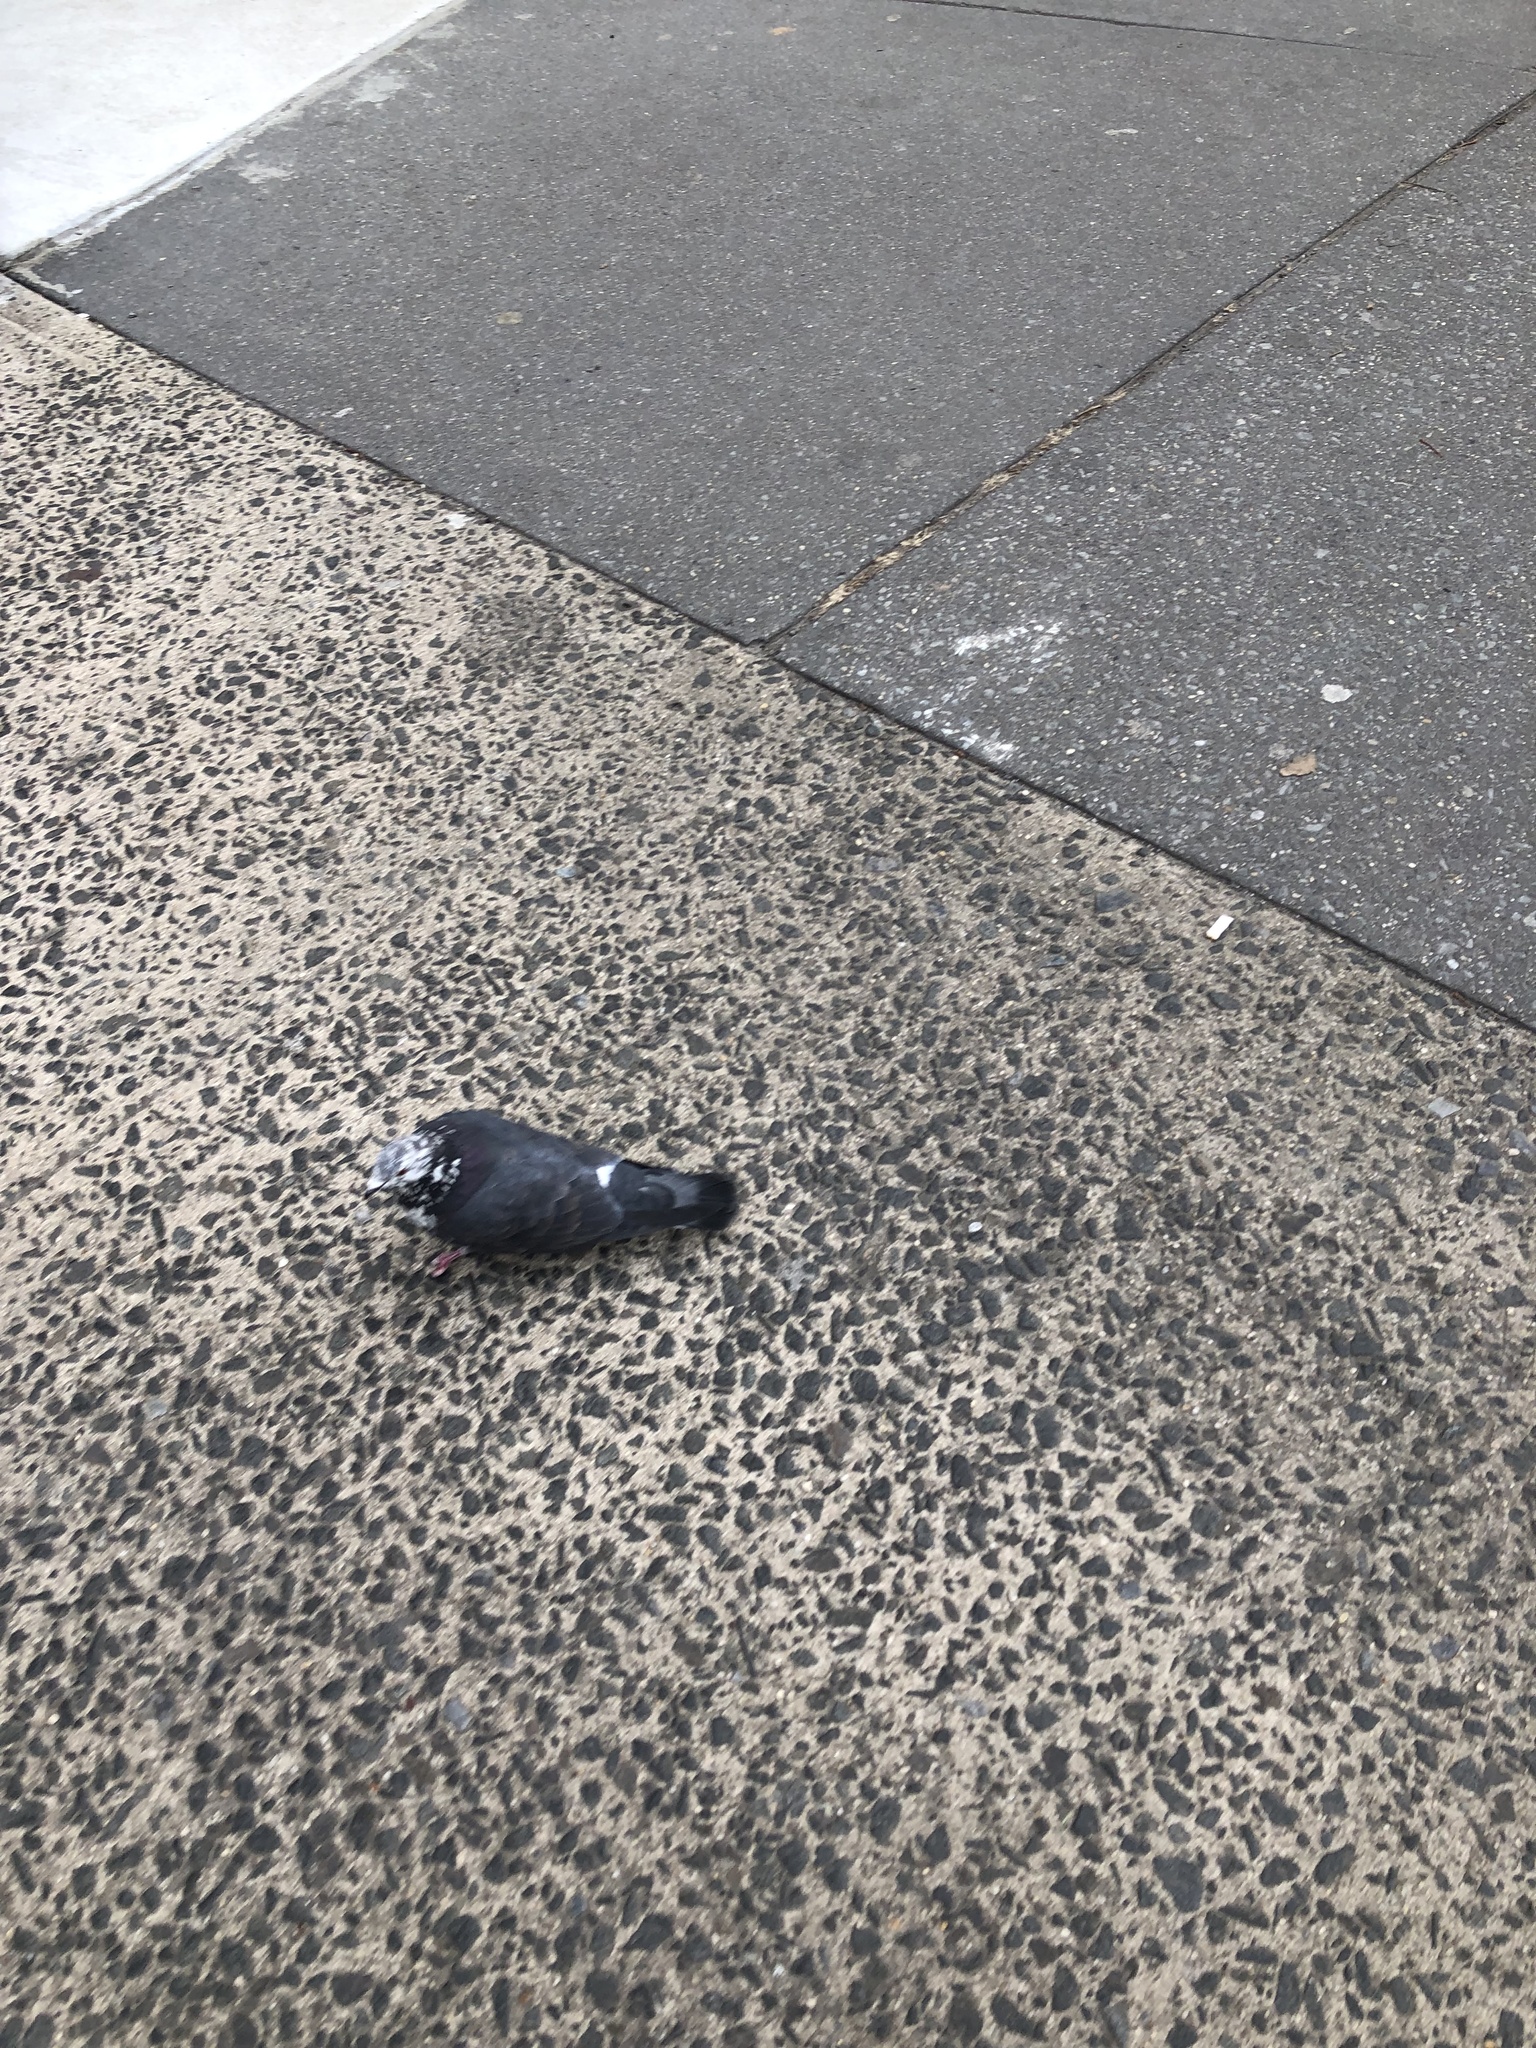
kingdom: Animalia
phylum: Chordata
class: Aves
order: Columbiformes
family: Columbidae
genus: Columba
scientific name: Columba livia
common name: Rock pigeon
